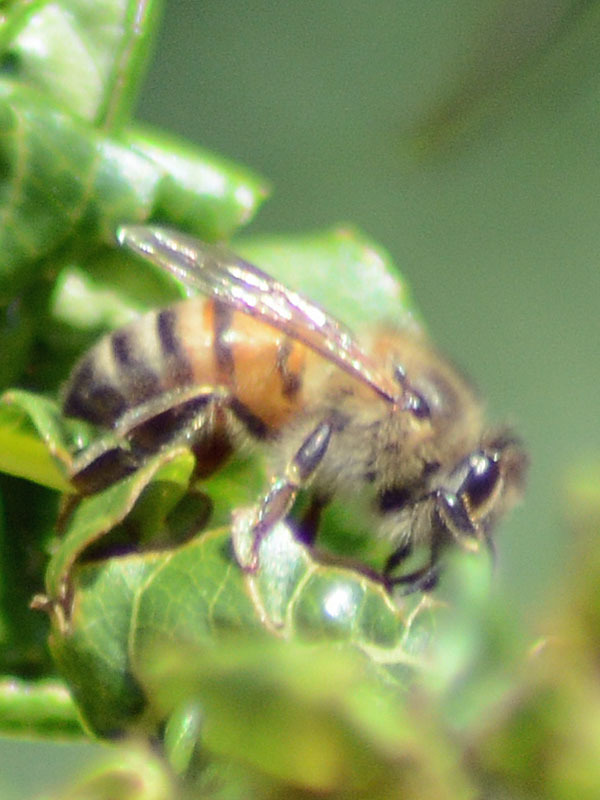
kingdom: Animalia
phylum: Arthropoda
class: Insecta
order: Hymenoptera
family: Apidae
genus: Apis
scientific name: Apis mellifera
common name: Honey bee
